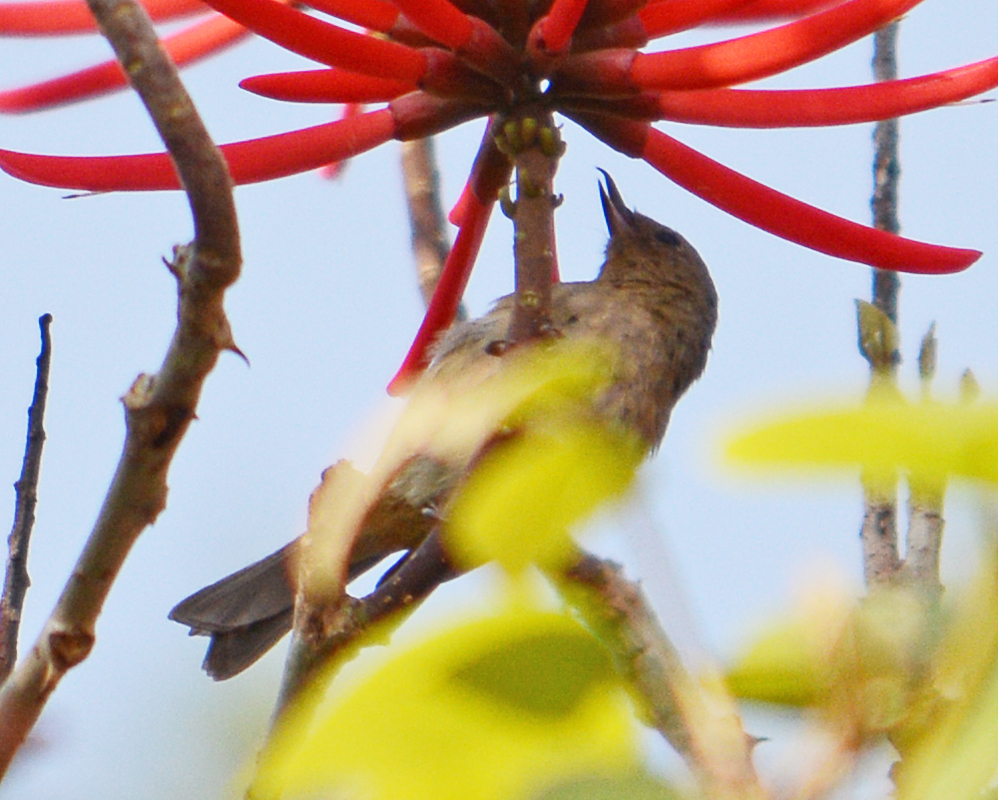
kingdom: Animalia
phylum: Chordata
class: Aves
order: Passeriformes
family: Thraupidae
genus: Diglossa
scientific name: Diglossa baritula
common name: Cinnamon-bellied flowerpiercer
